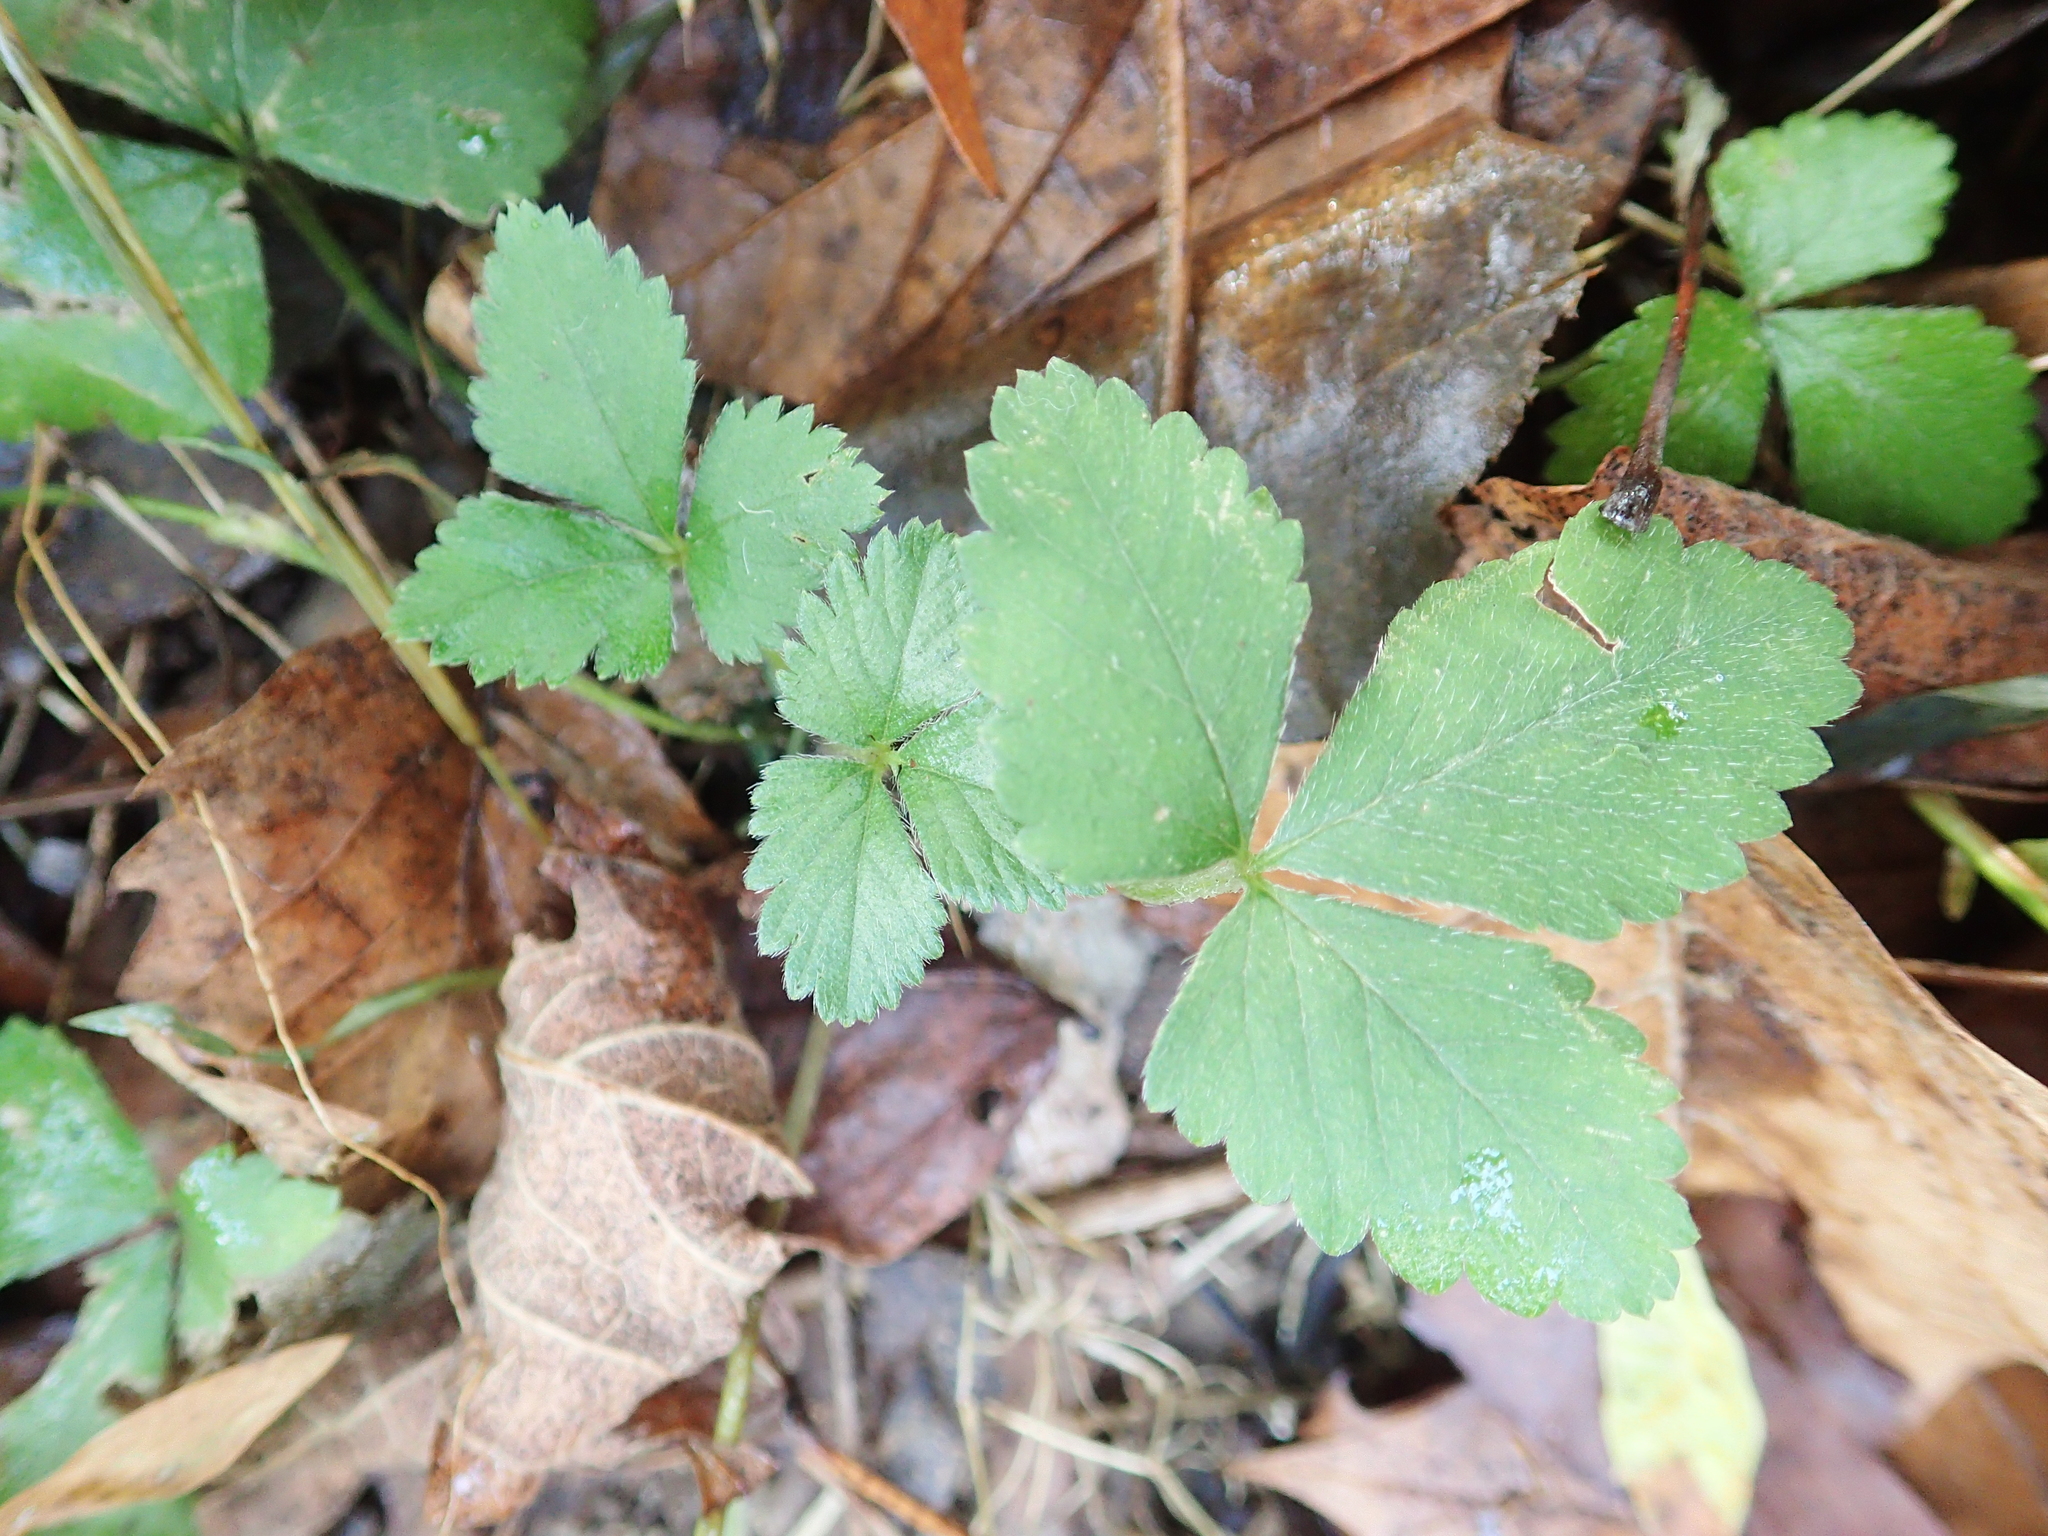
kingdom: Plantae
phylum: Tracheophyta
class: Magnoliopsida
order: Rosales
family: Rosaceae
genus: Potentilla
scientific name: Potentilla indica
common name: Yellow-flowered strawberry
